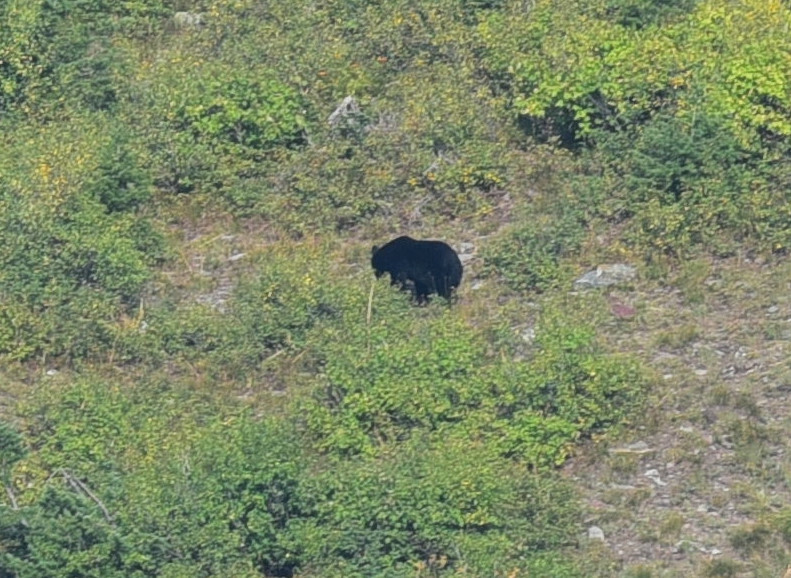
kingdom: Animalia
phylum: Chordata
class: Mammalia
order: Carnivora
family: Ursidae
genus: Ursus
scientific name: Ursus americanus
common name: American black bear
